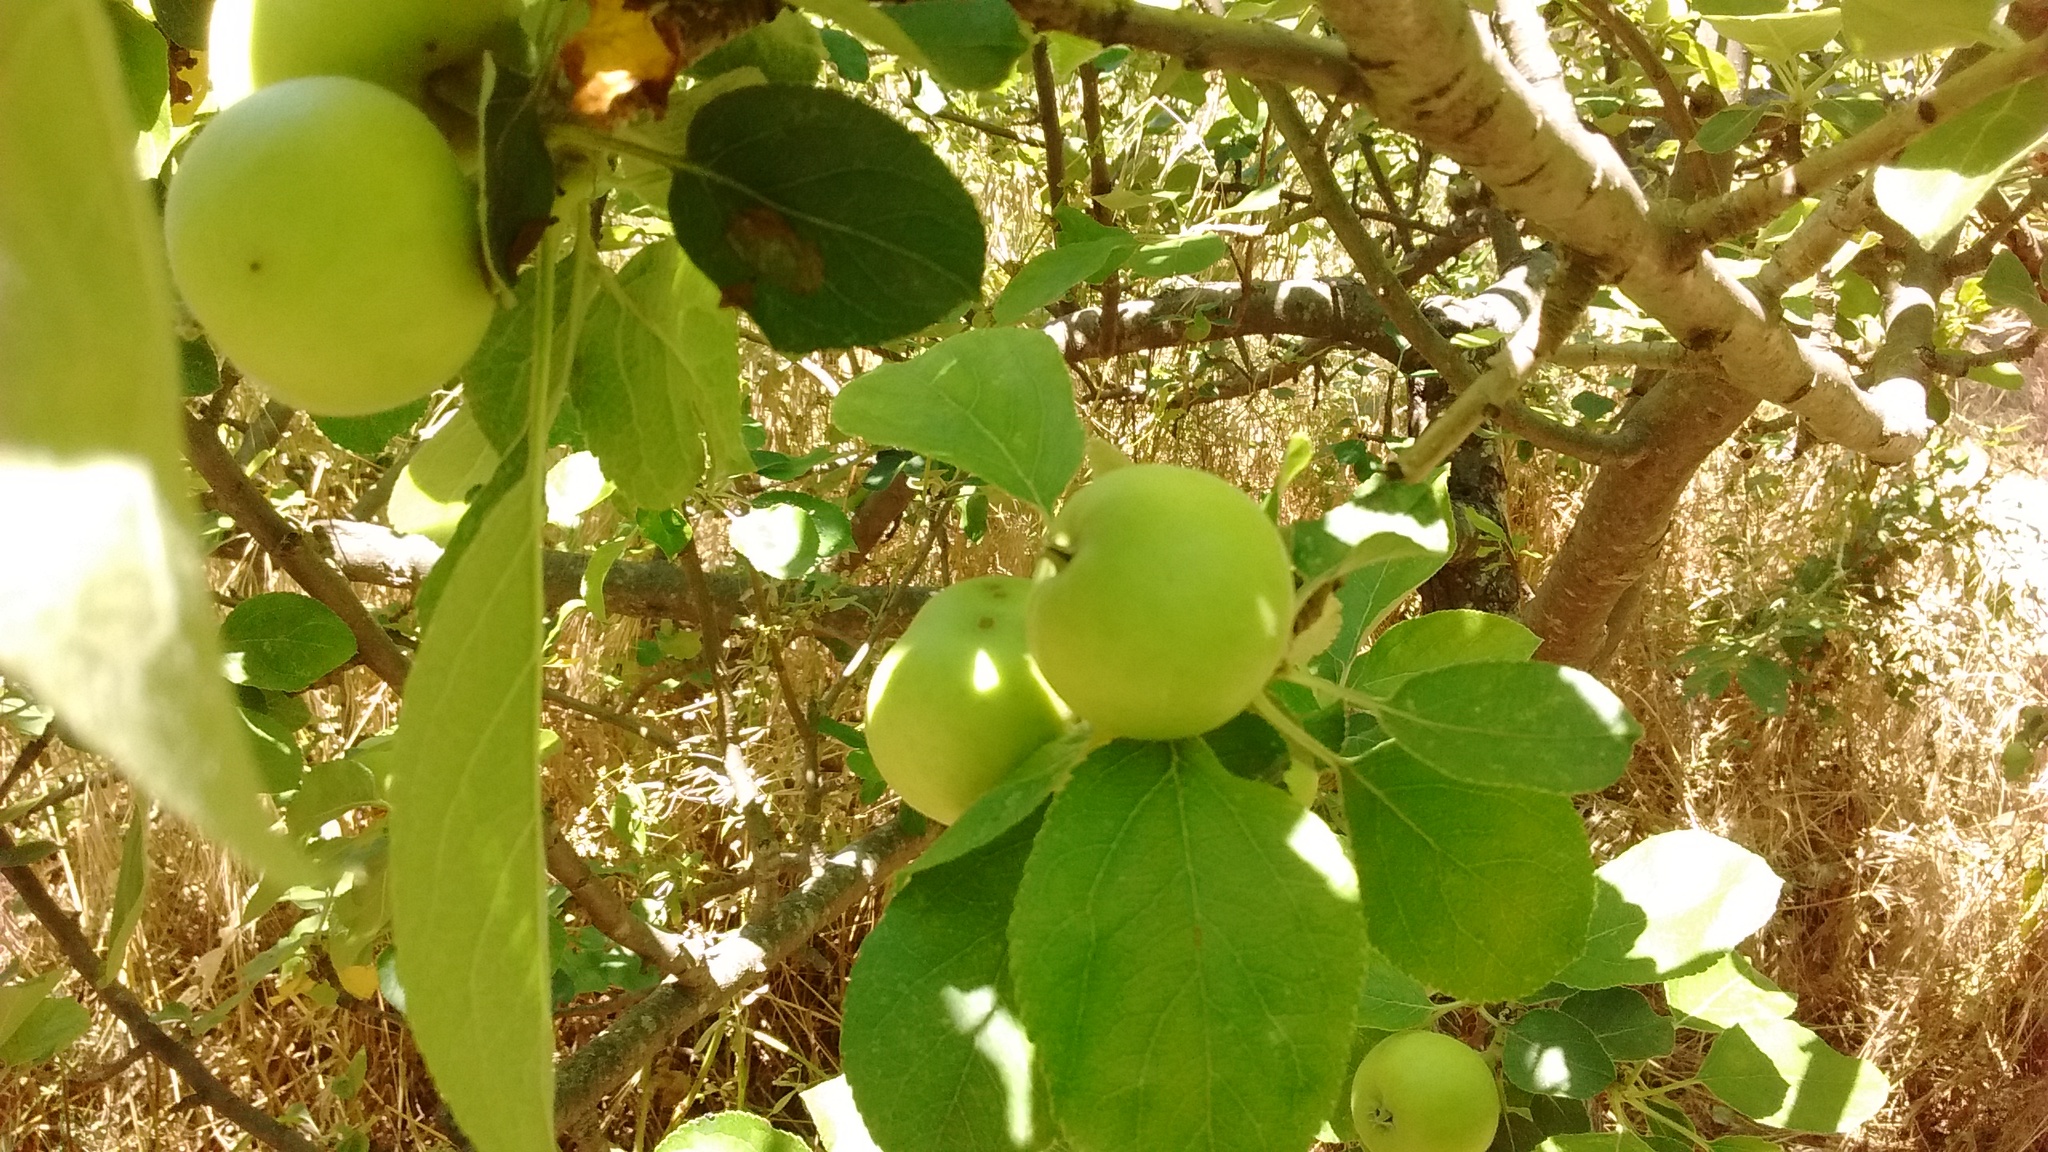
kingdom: Plantae
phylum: Tracheophyta
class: Magnoliopsida
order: Rosales
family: Rosaceae
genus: Malus
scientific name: Malus domestica
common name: Apple
